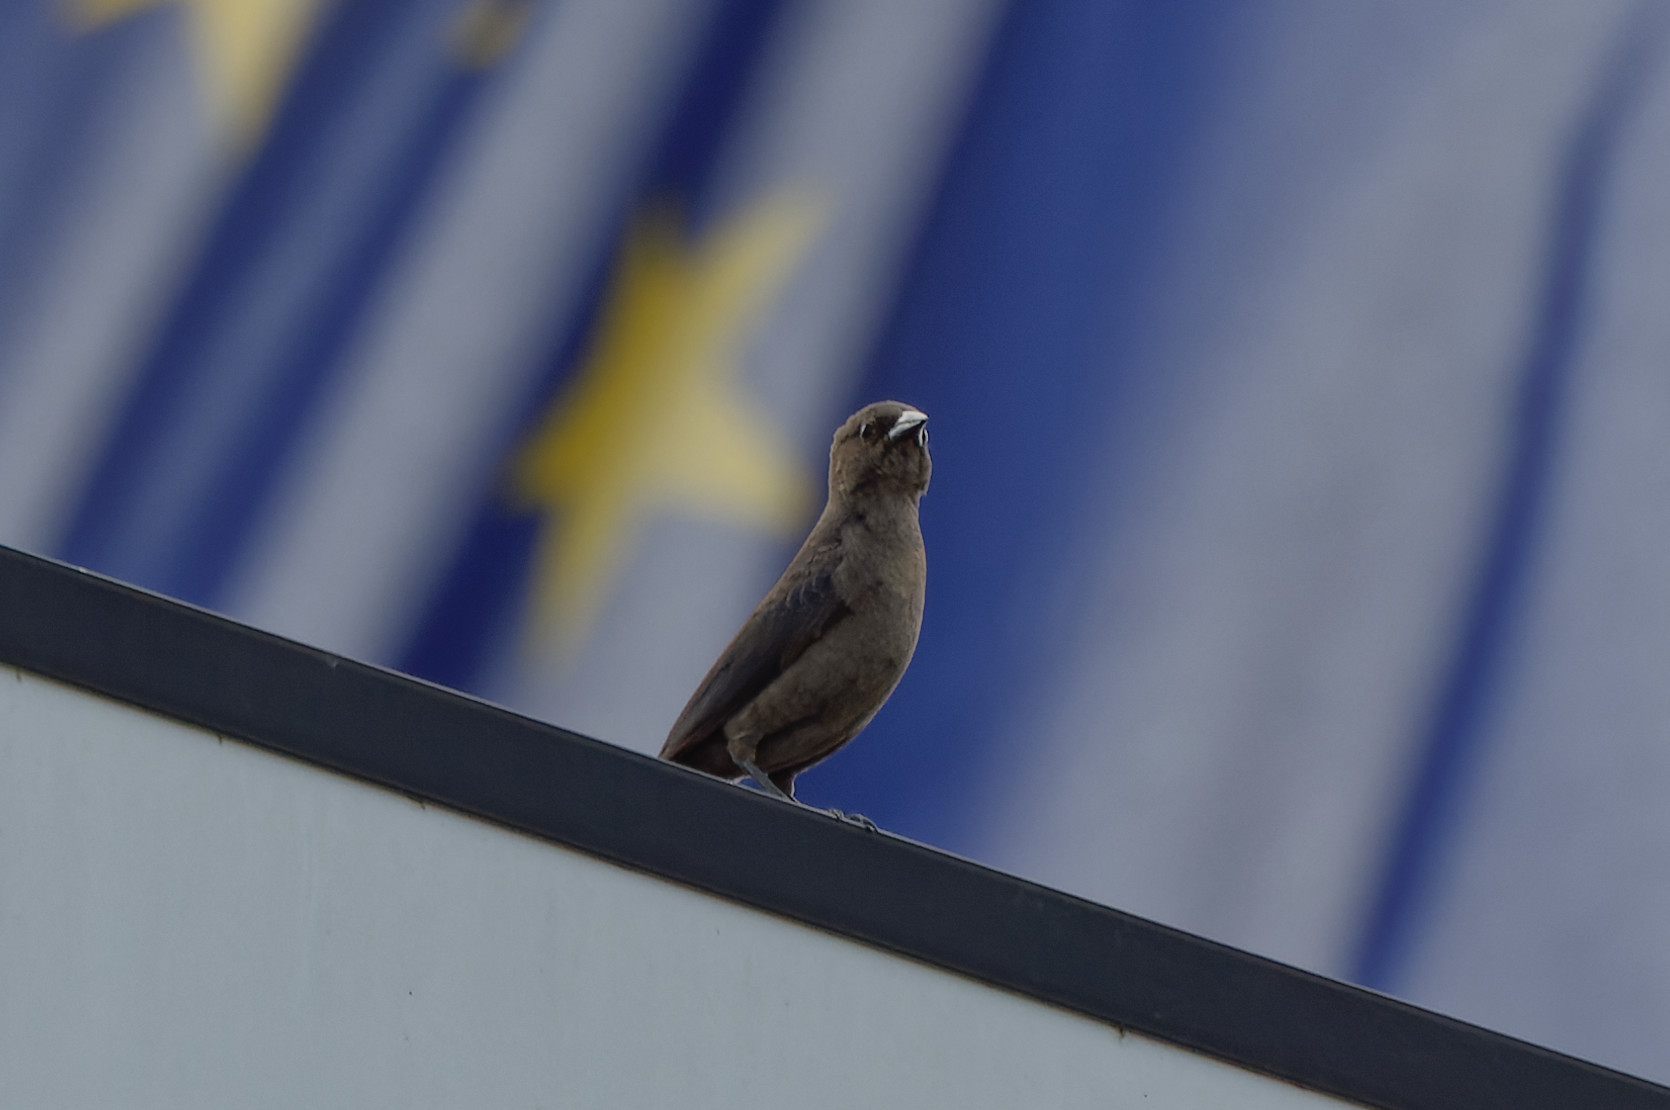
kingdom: Animalia
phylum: Chordata
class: Aves
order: Passeriformes
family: Icteridae
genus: Molothrus
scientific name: Molothrus bonariensis
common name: Shiny cowbird
